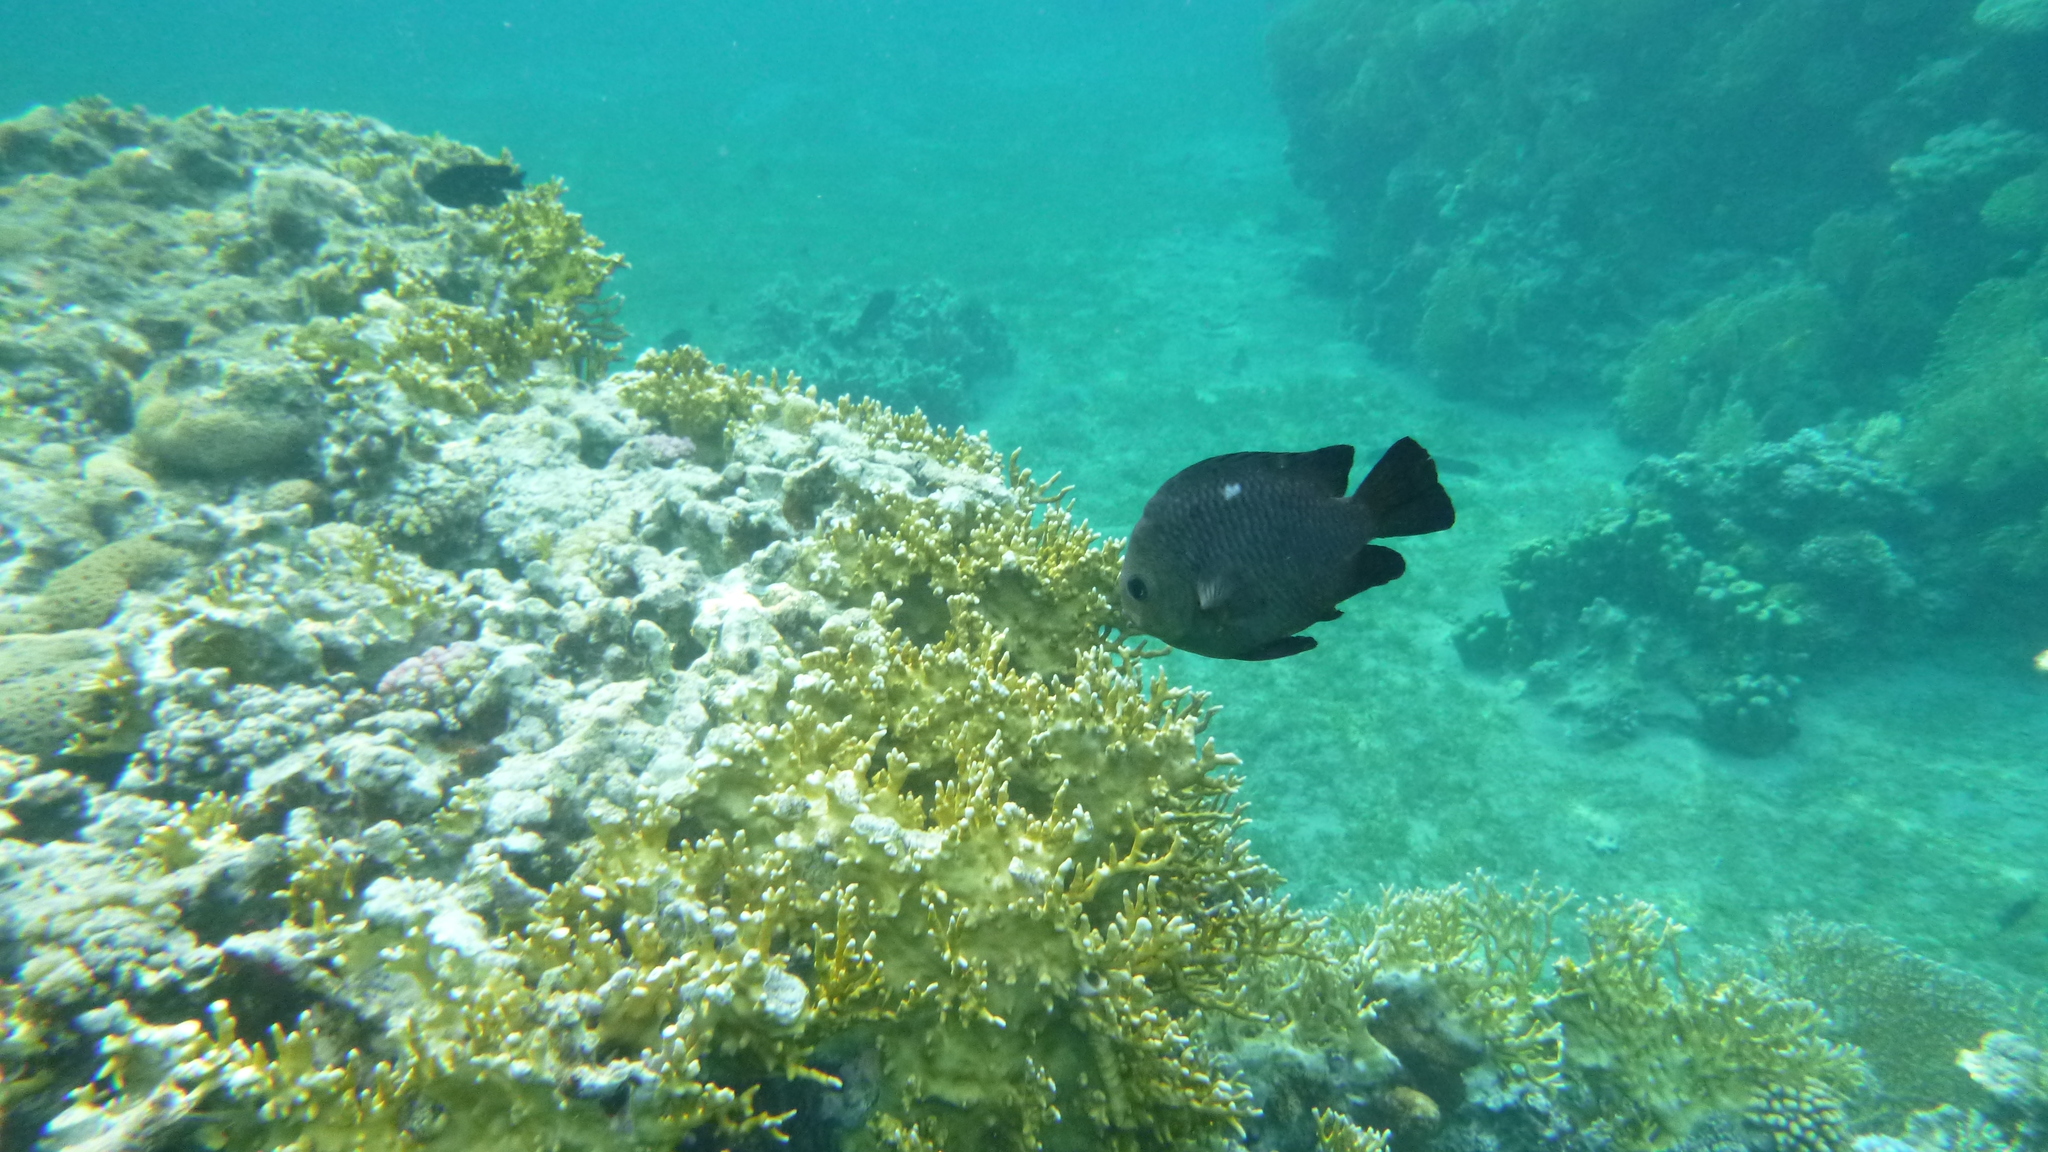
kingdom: Animalia
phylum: Chordata
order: Perciformes
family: Pomacentridae
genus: Dascyllus
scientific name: Dascyllus trimaculatus
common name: Threespot dascyllus
